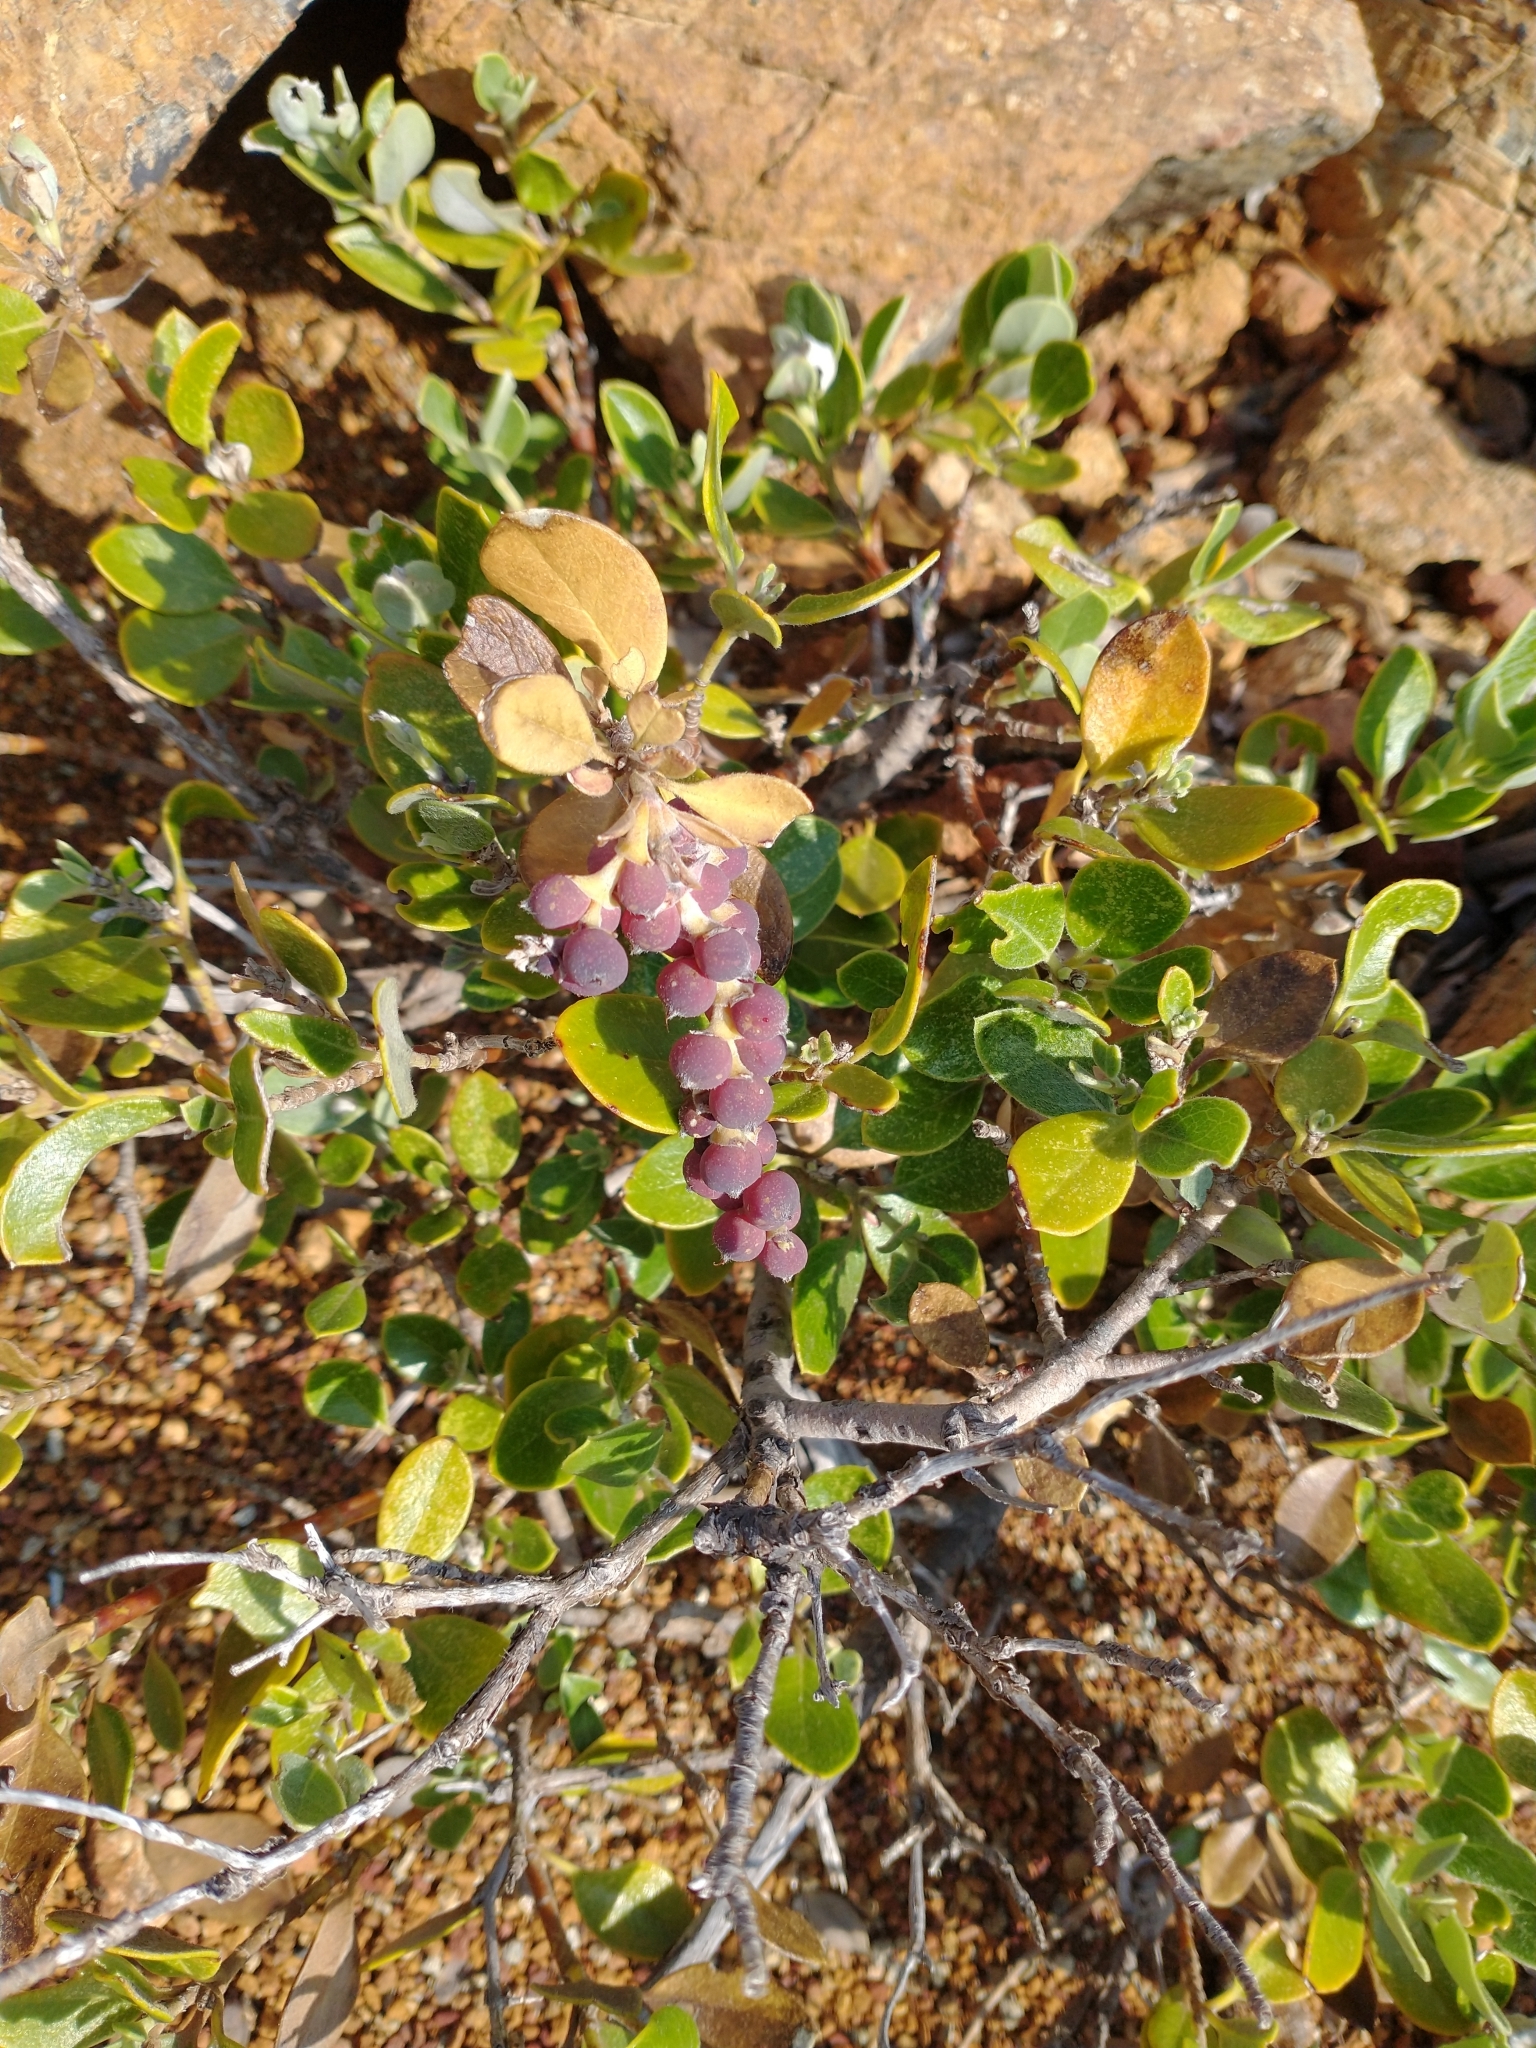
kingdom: Plantae
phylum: Tracheophyta
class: Magnoliopsida
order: Garryales
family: Garryaceae
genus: Garrya
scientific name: Garrya buxifolia
